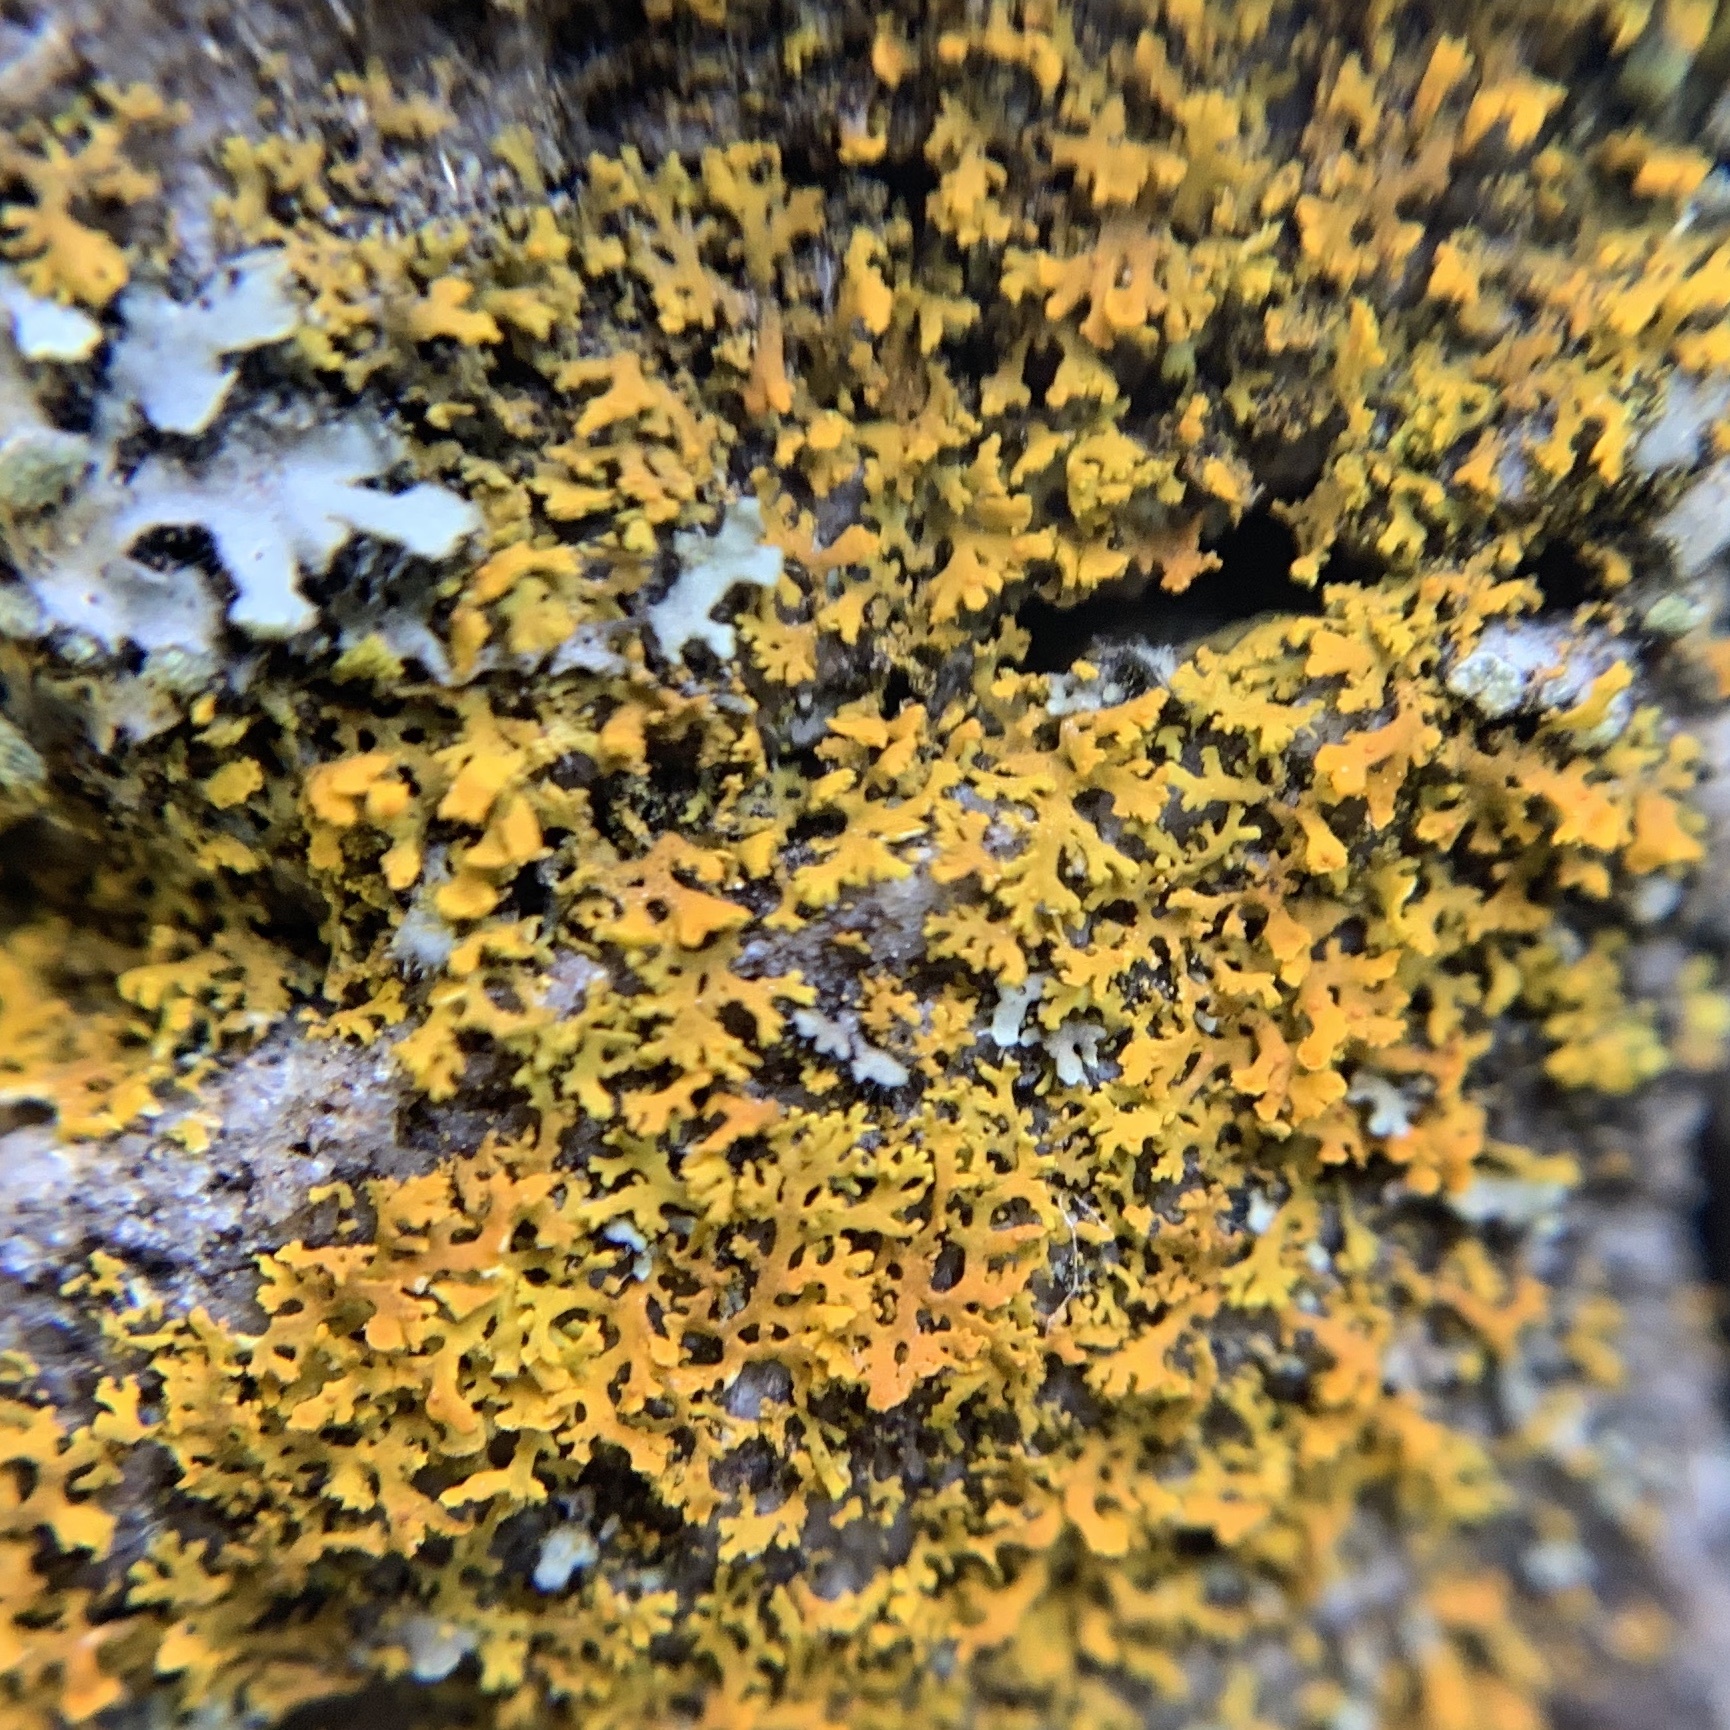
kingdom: Fungi
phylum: Ascomycota
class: Lecanoromycetes
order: Teloschistales
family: Teloschistaceae
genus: Gallowayella
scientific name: Gallowayella weberi
